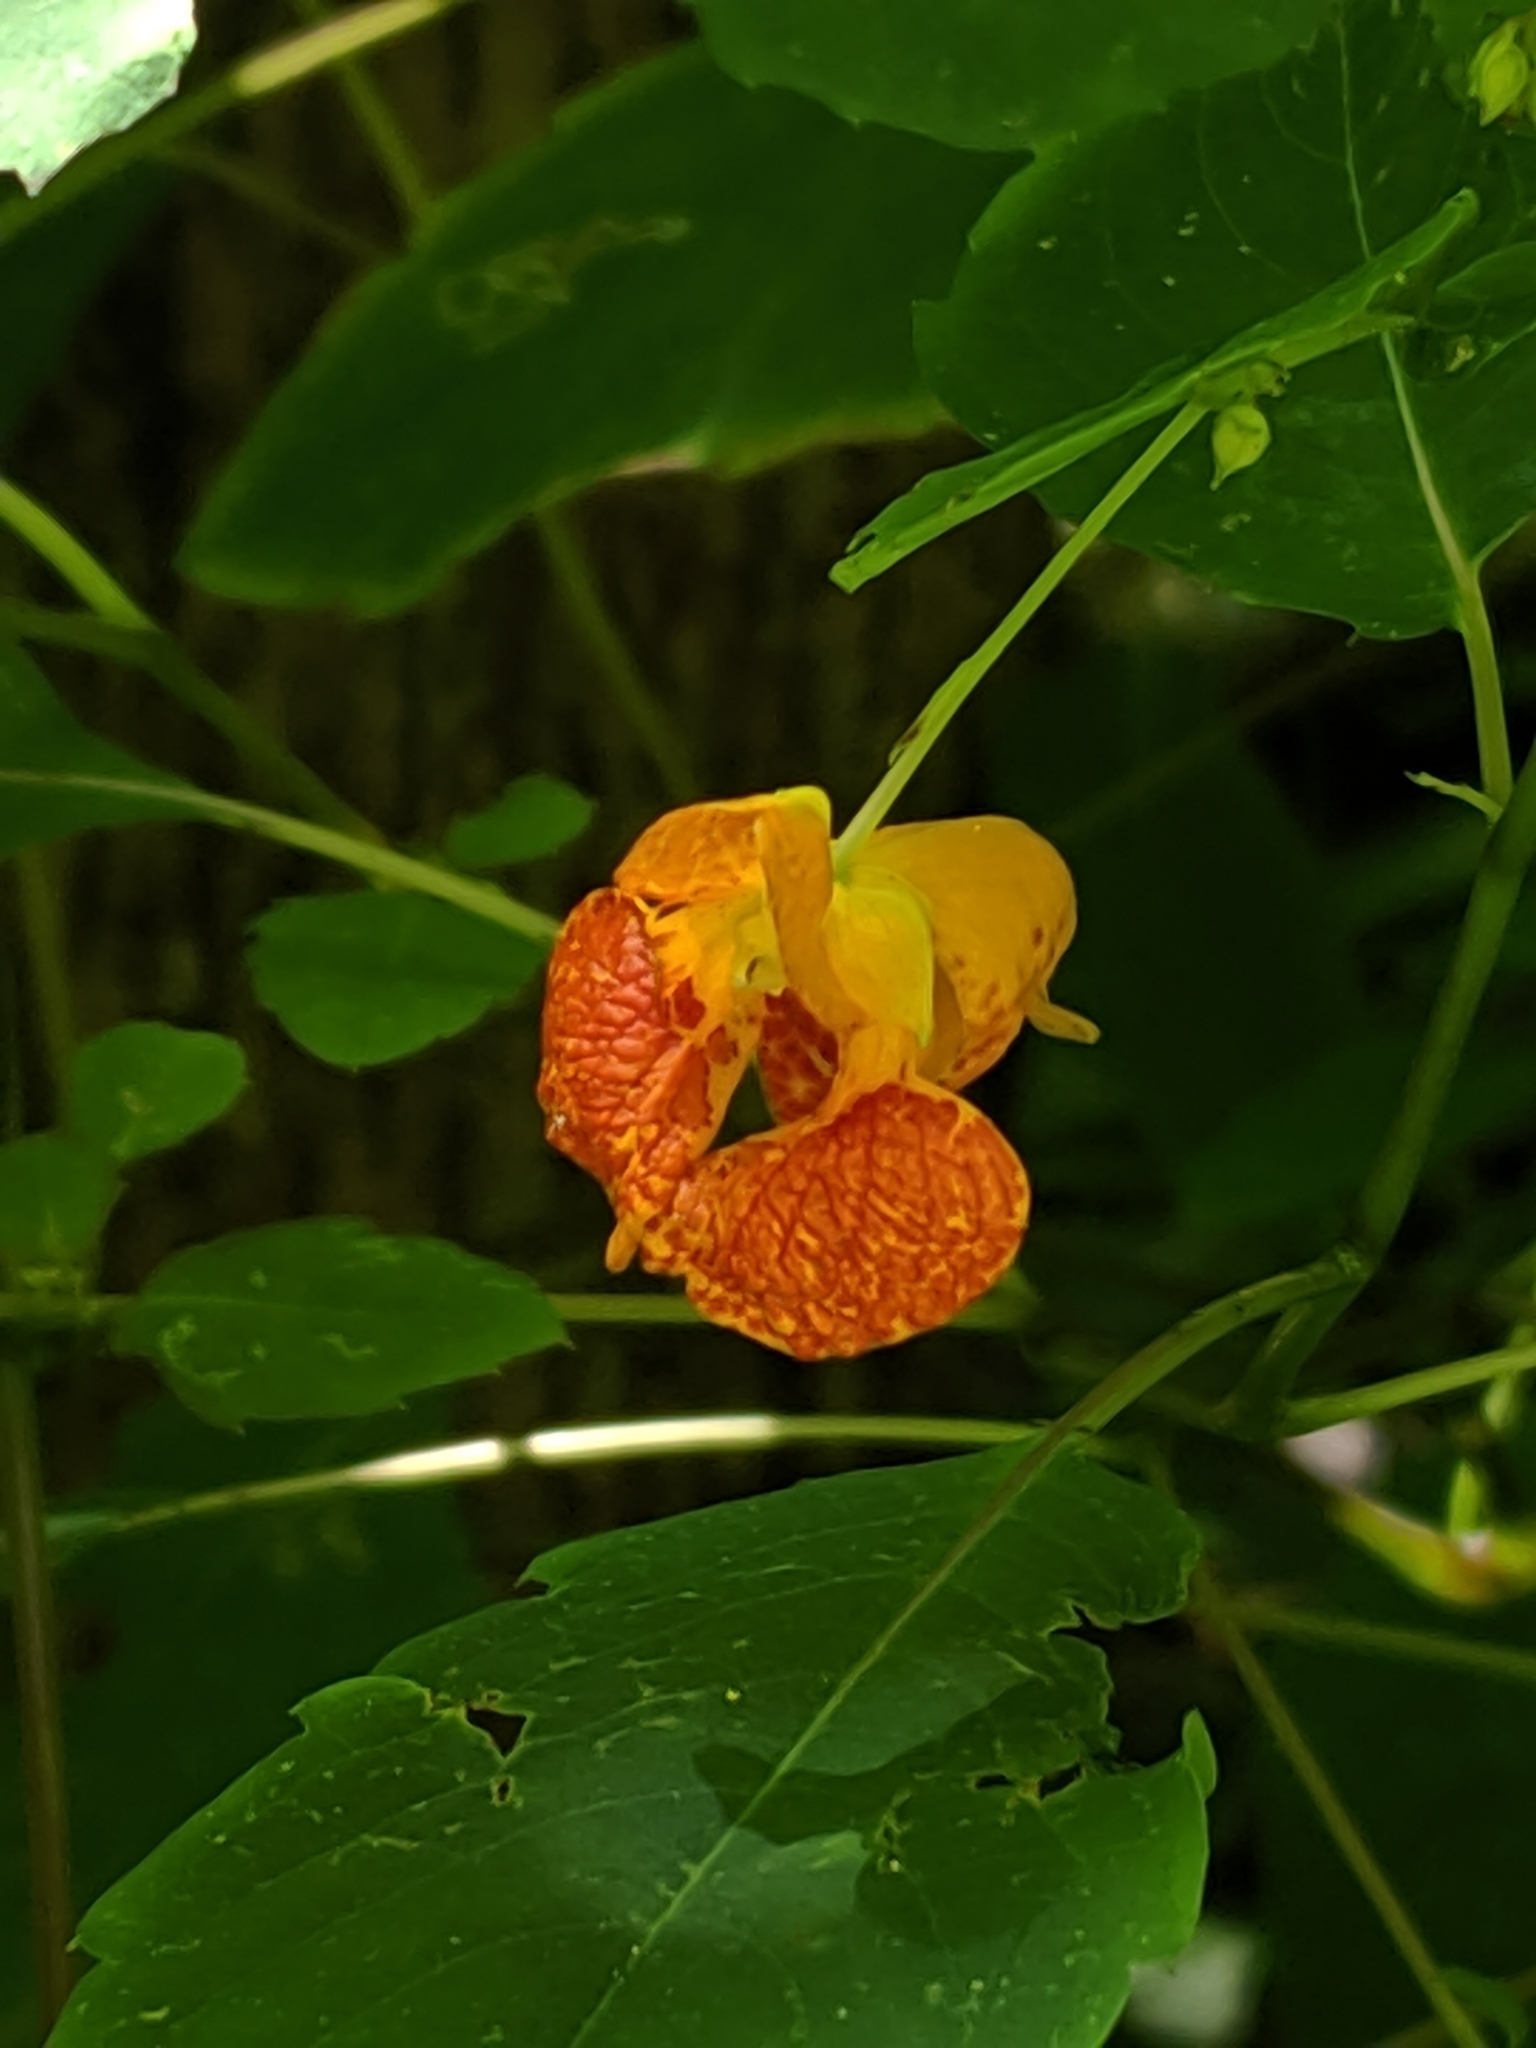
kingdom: Plantae
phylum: Tracheophyta
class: Magnoliopsida
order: Ericales
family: Balsaminaceae
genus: Impatiens
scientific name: Impatiens capensis
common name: Orange balsam
